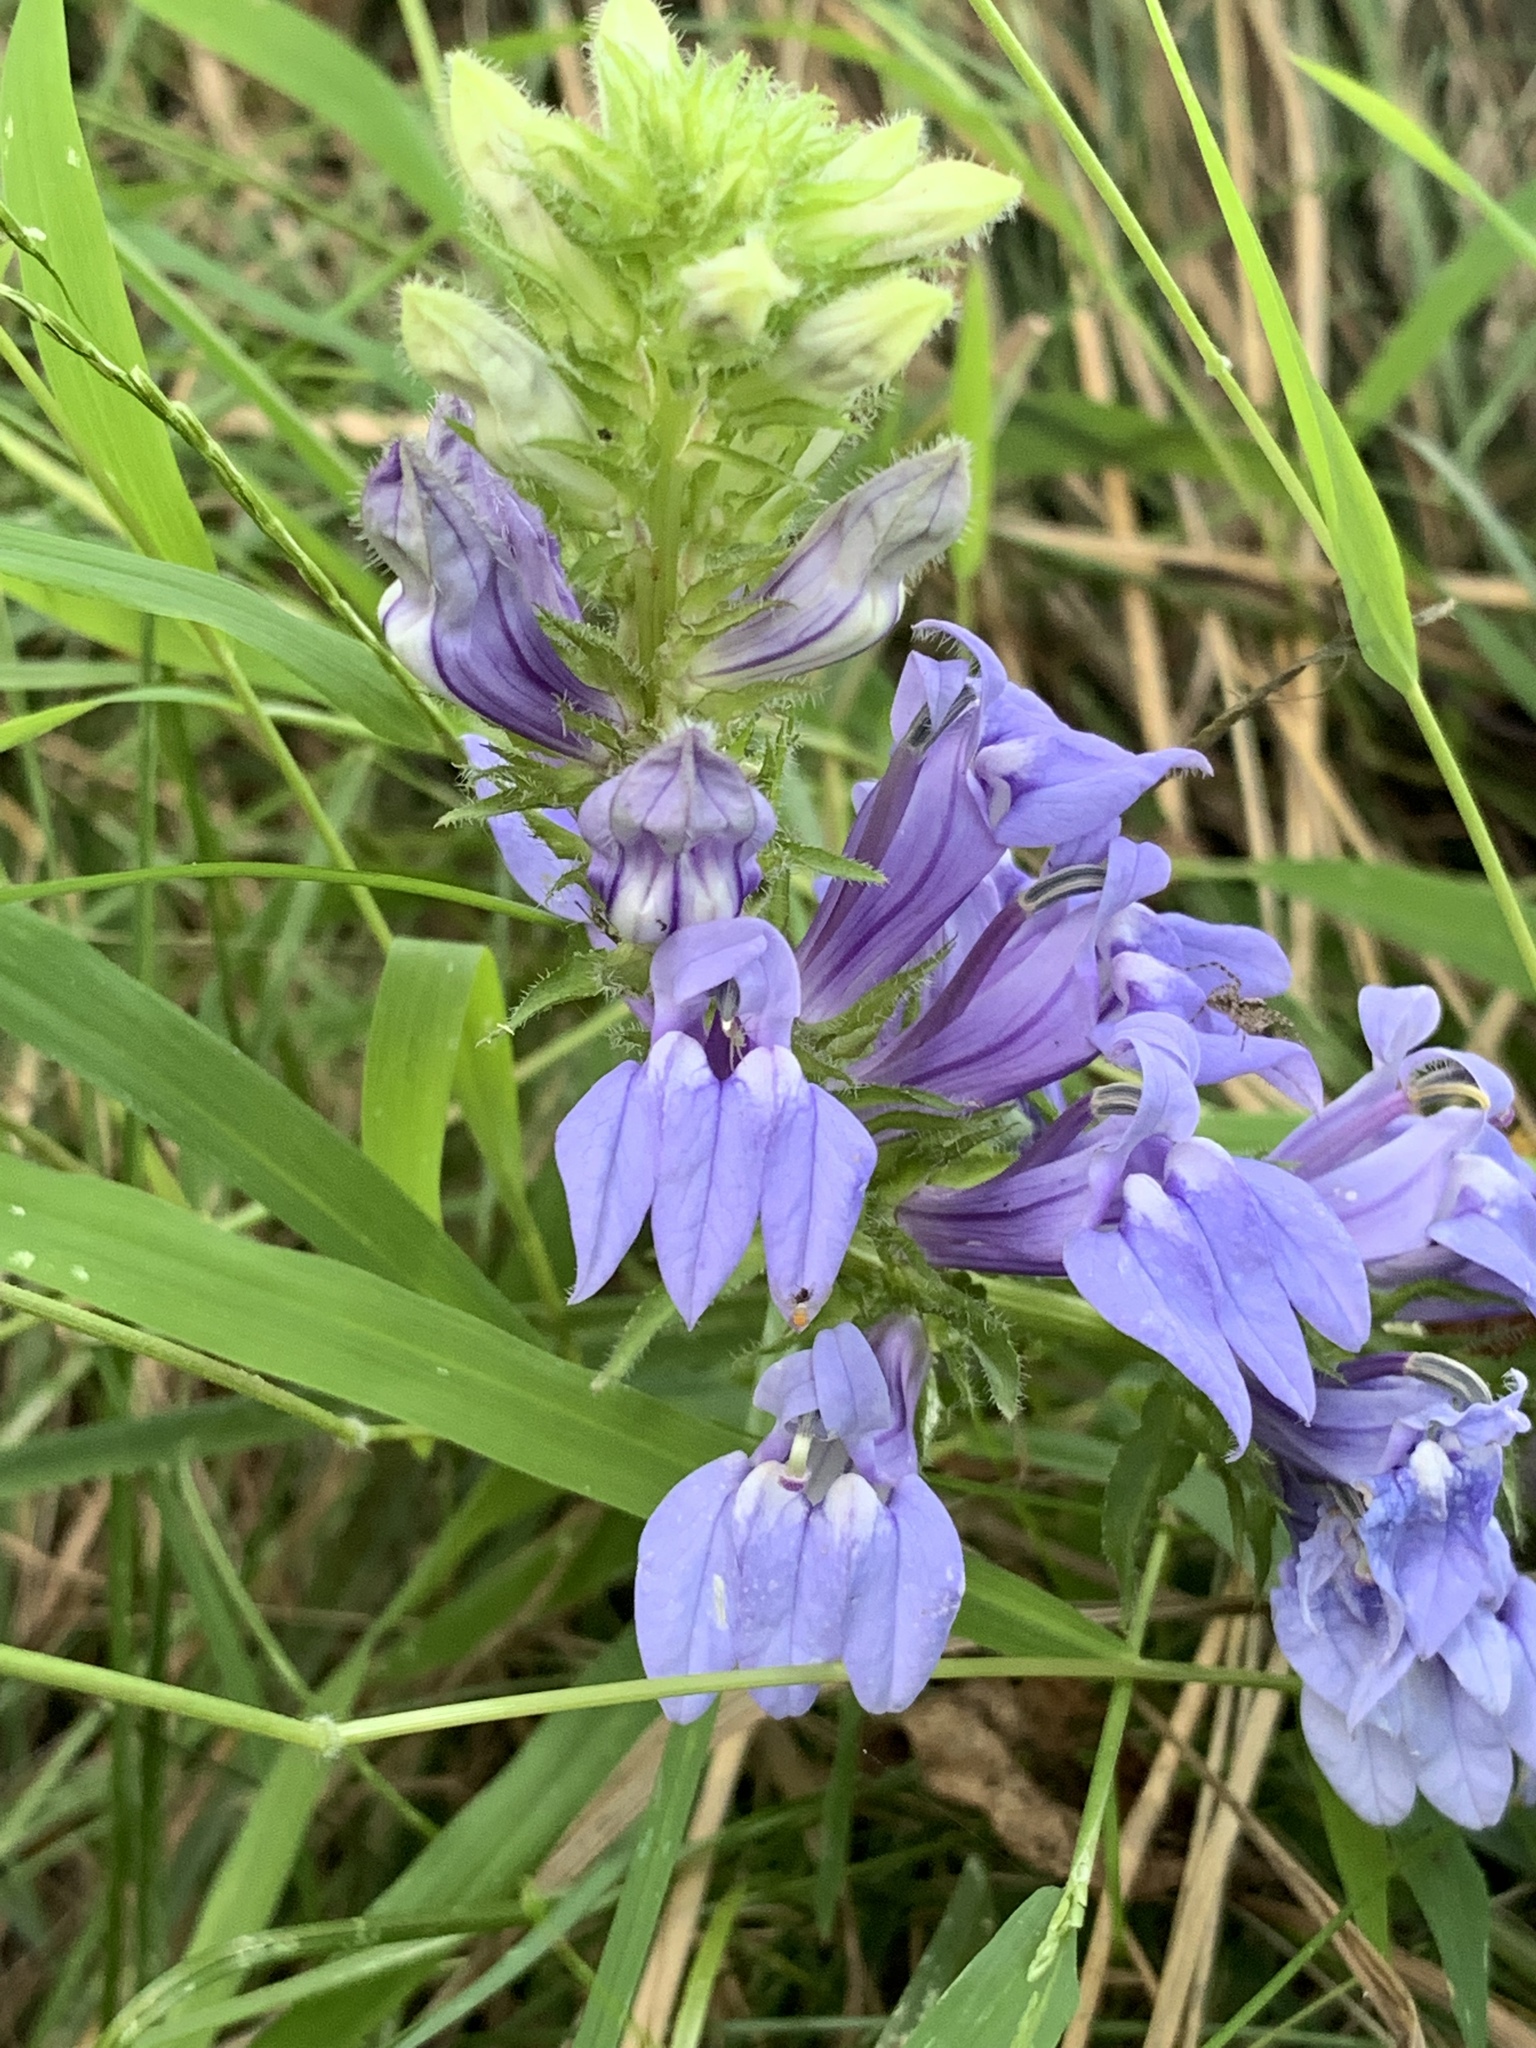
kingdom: Plantae
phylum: Tracheophyta
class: Magnoliopsida
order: Asterales
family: Campanulaceae
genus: Lobelia
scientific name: Lobelia siphilitica
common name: Great lobelia
